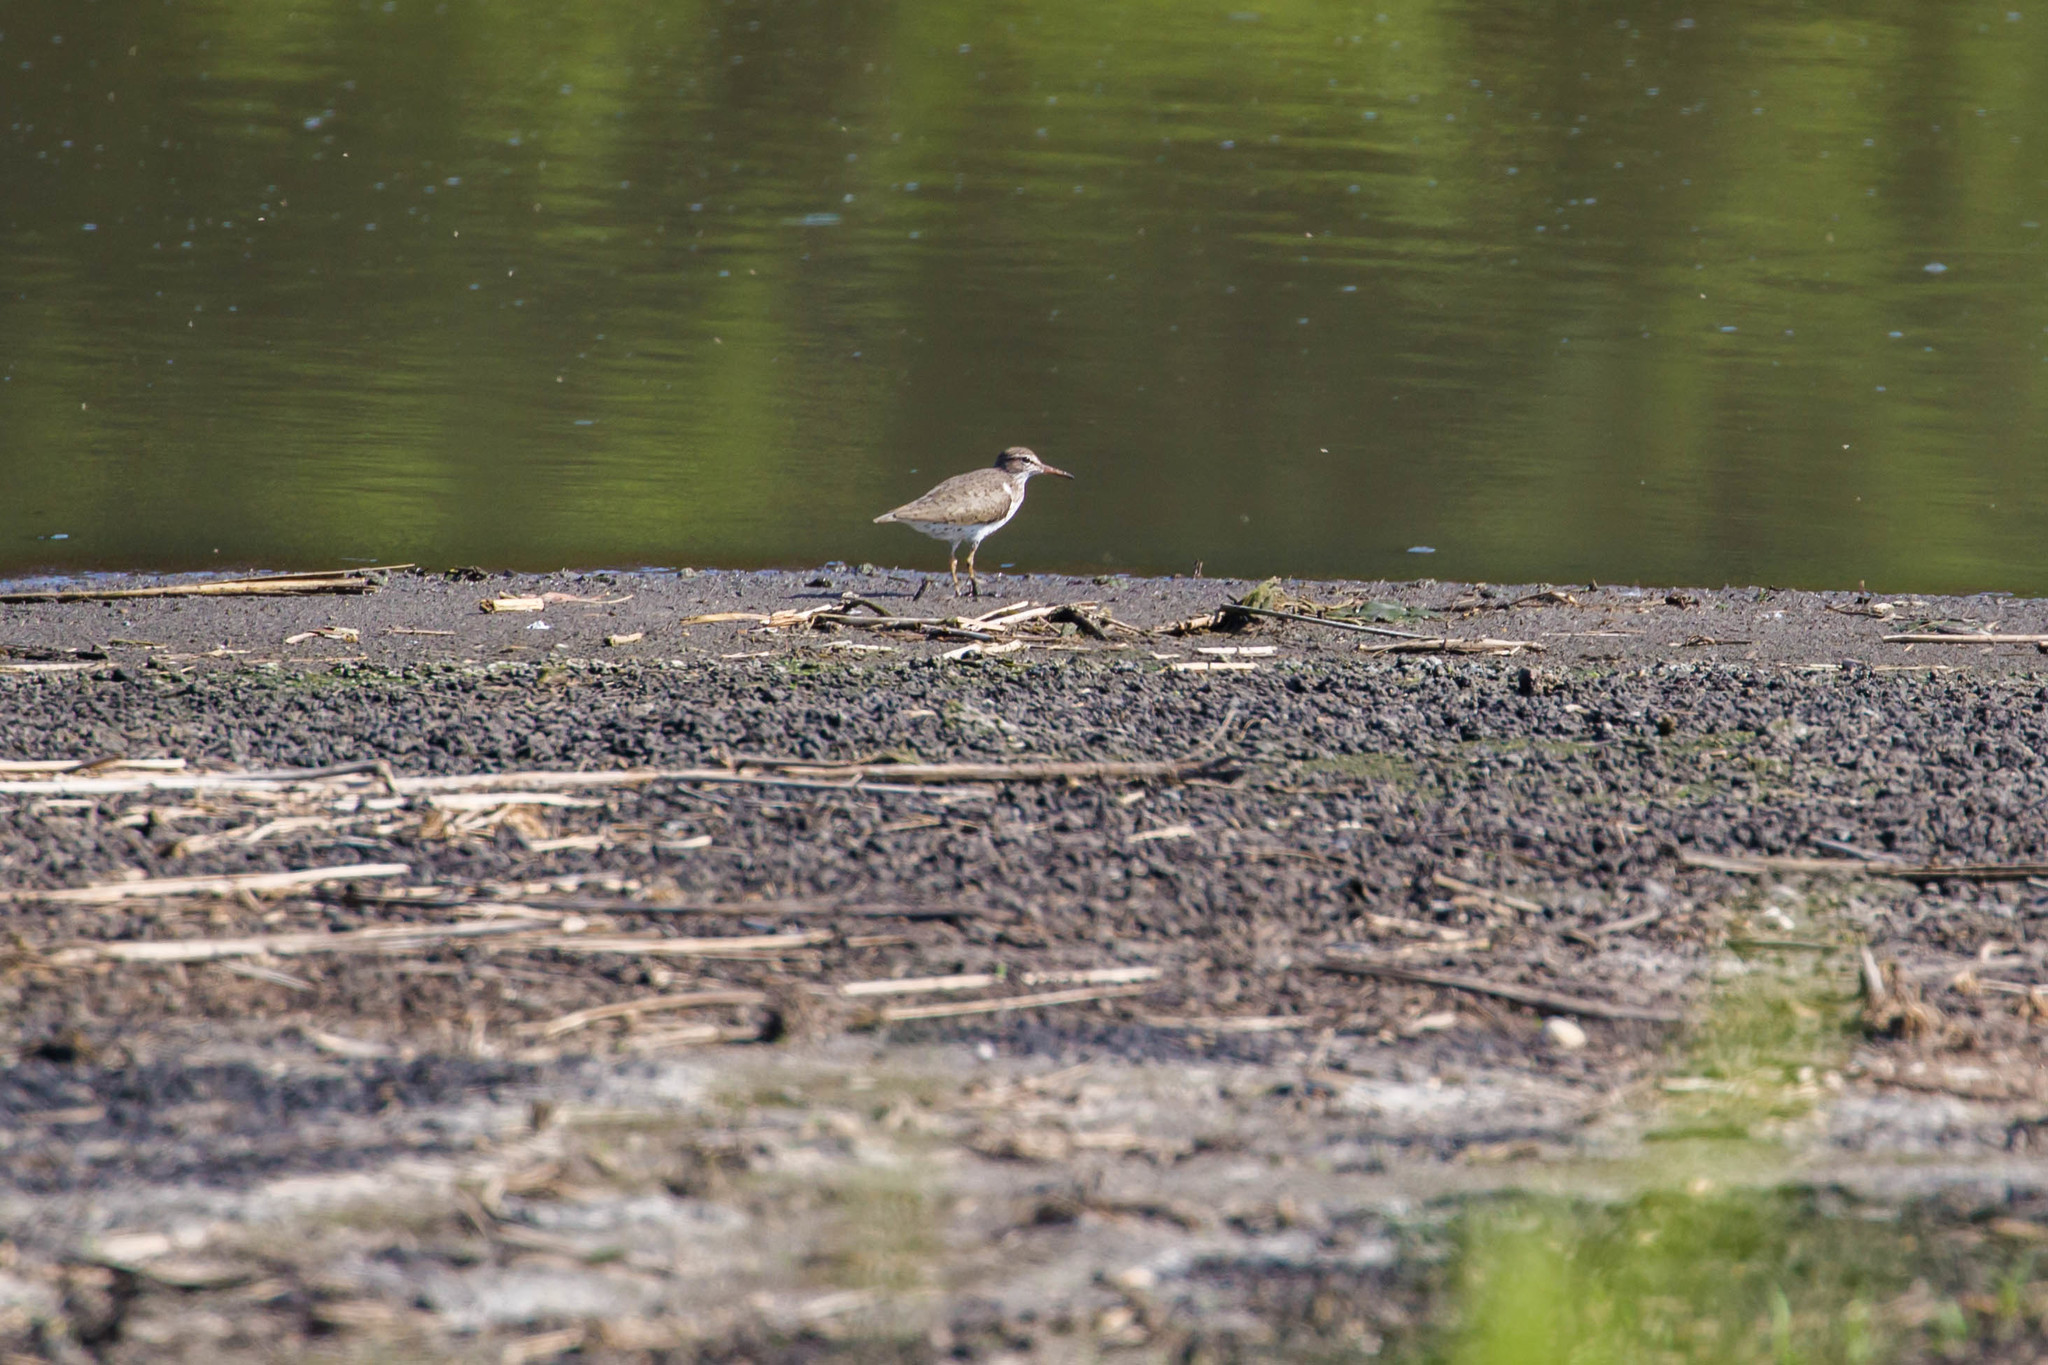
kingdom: Animalia
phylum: Chordata
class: Aves
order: Charadriiformes
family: Scolopacidae
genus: Actitis
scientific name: Actitis macularius
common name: Spotted sandpiper
